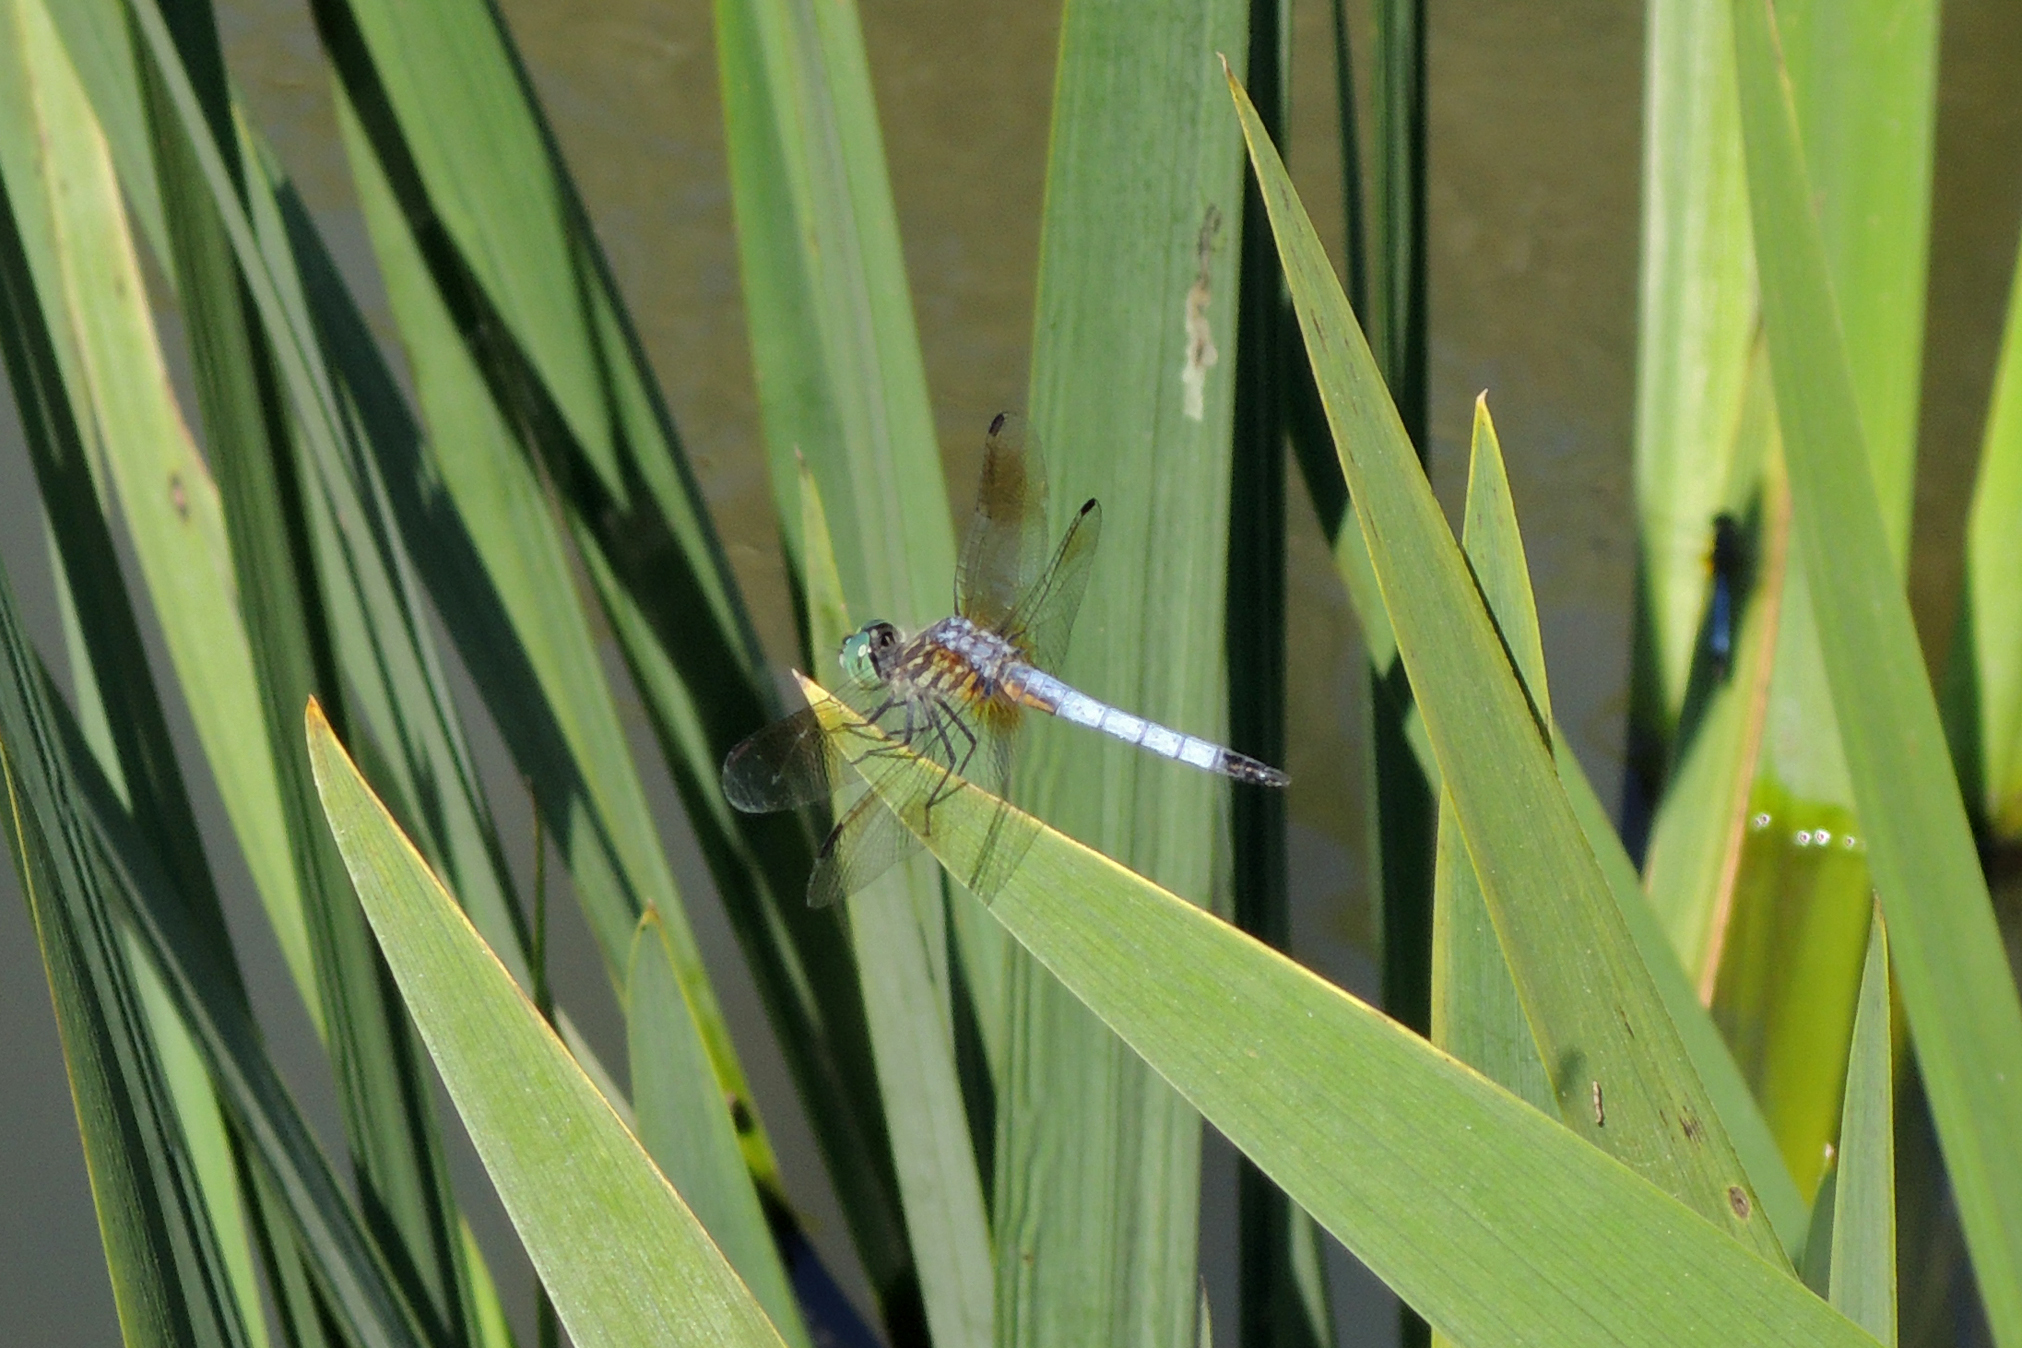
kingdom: Animalia
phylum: Arthropoda
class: Insecta
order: Odonata
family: Libellulidae
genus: Pachydiplax
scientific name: Pachydiplax longipennis
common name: Blue dasher
